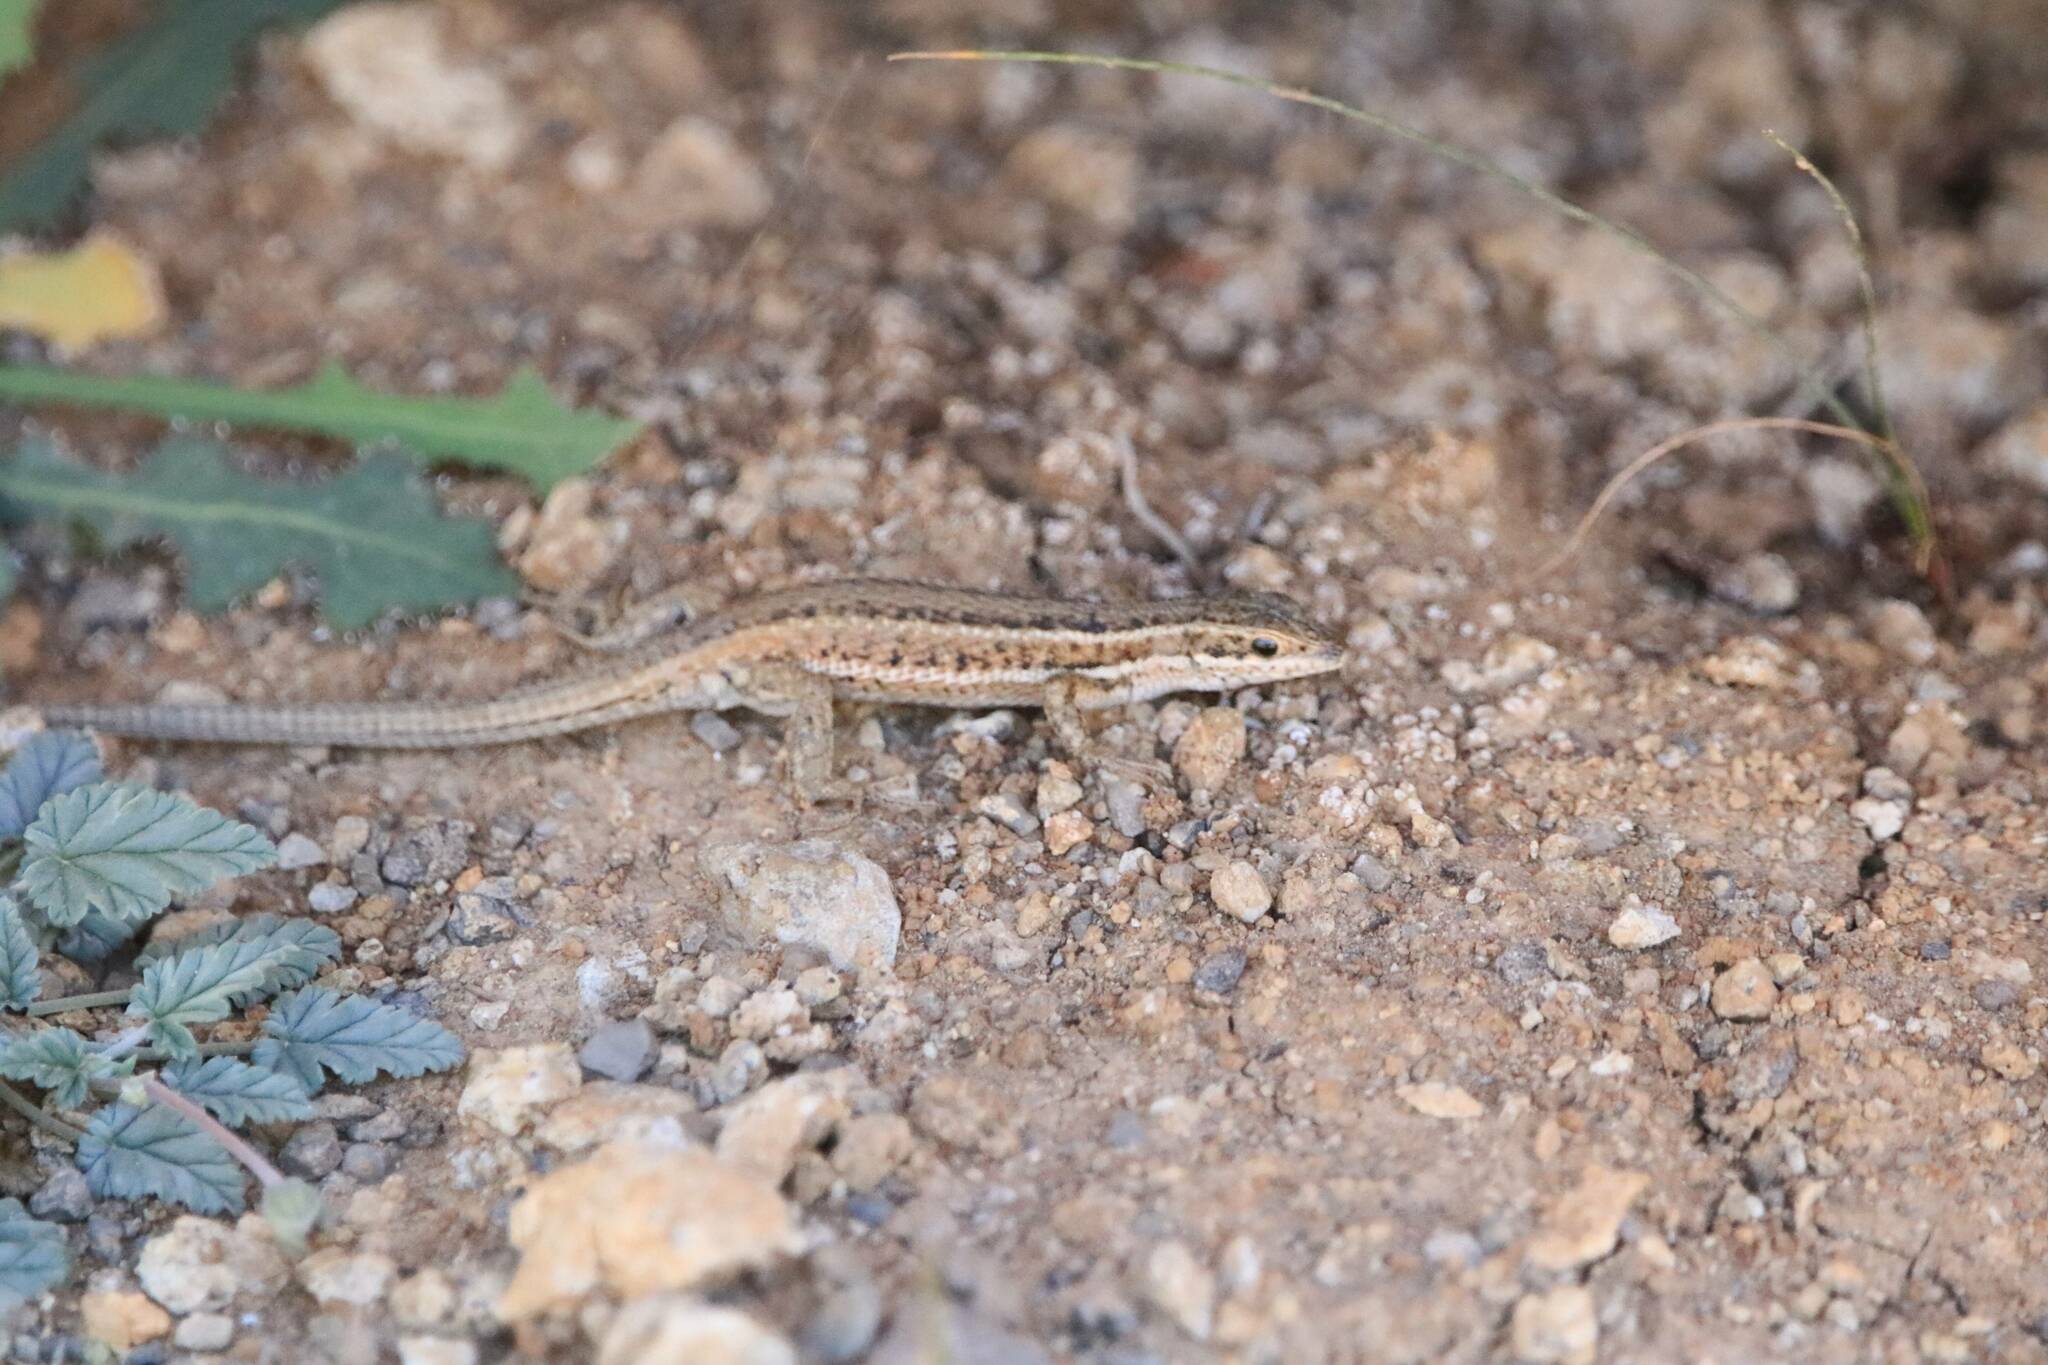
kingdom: Animalia
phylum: Chordata
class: Squamata
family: Lacertidae
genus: Ophisops
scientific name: Ophisops occidentalis
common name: Western snake-eyed lizard
